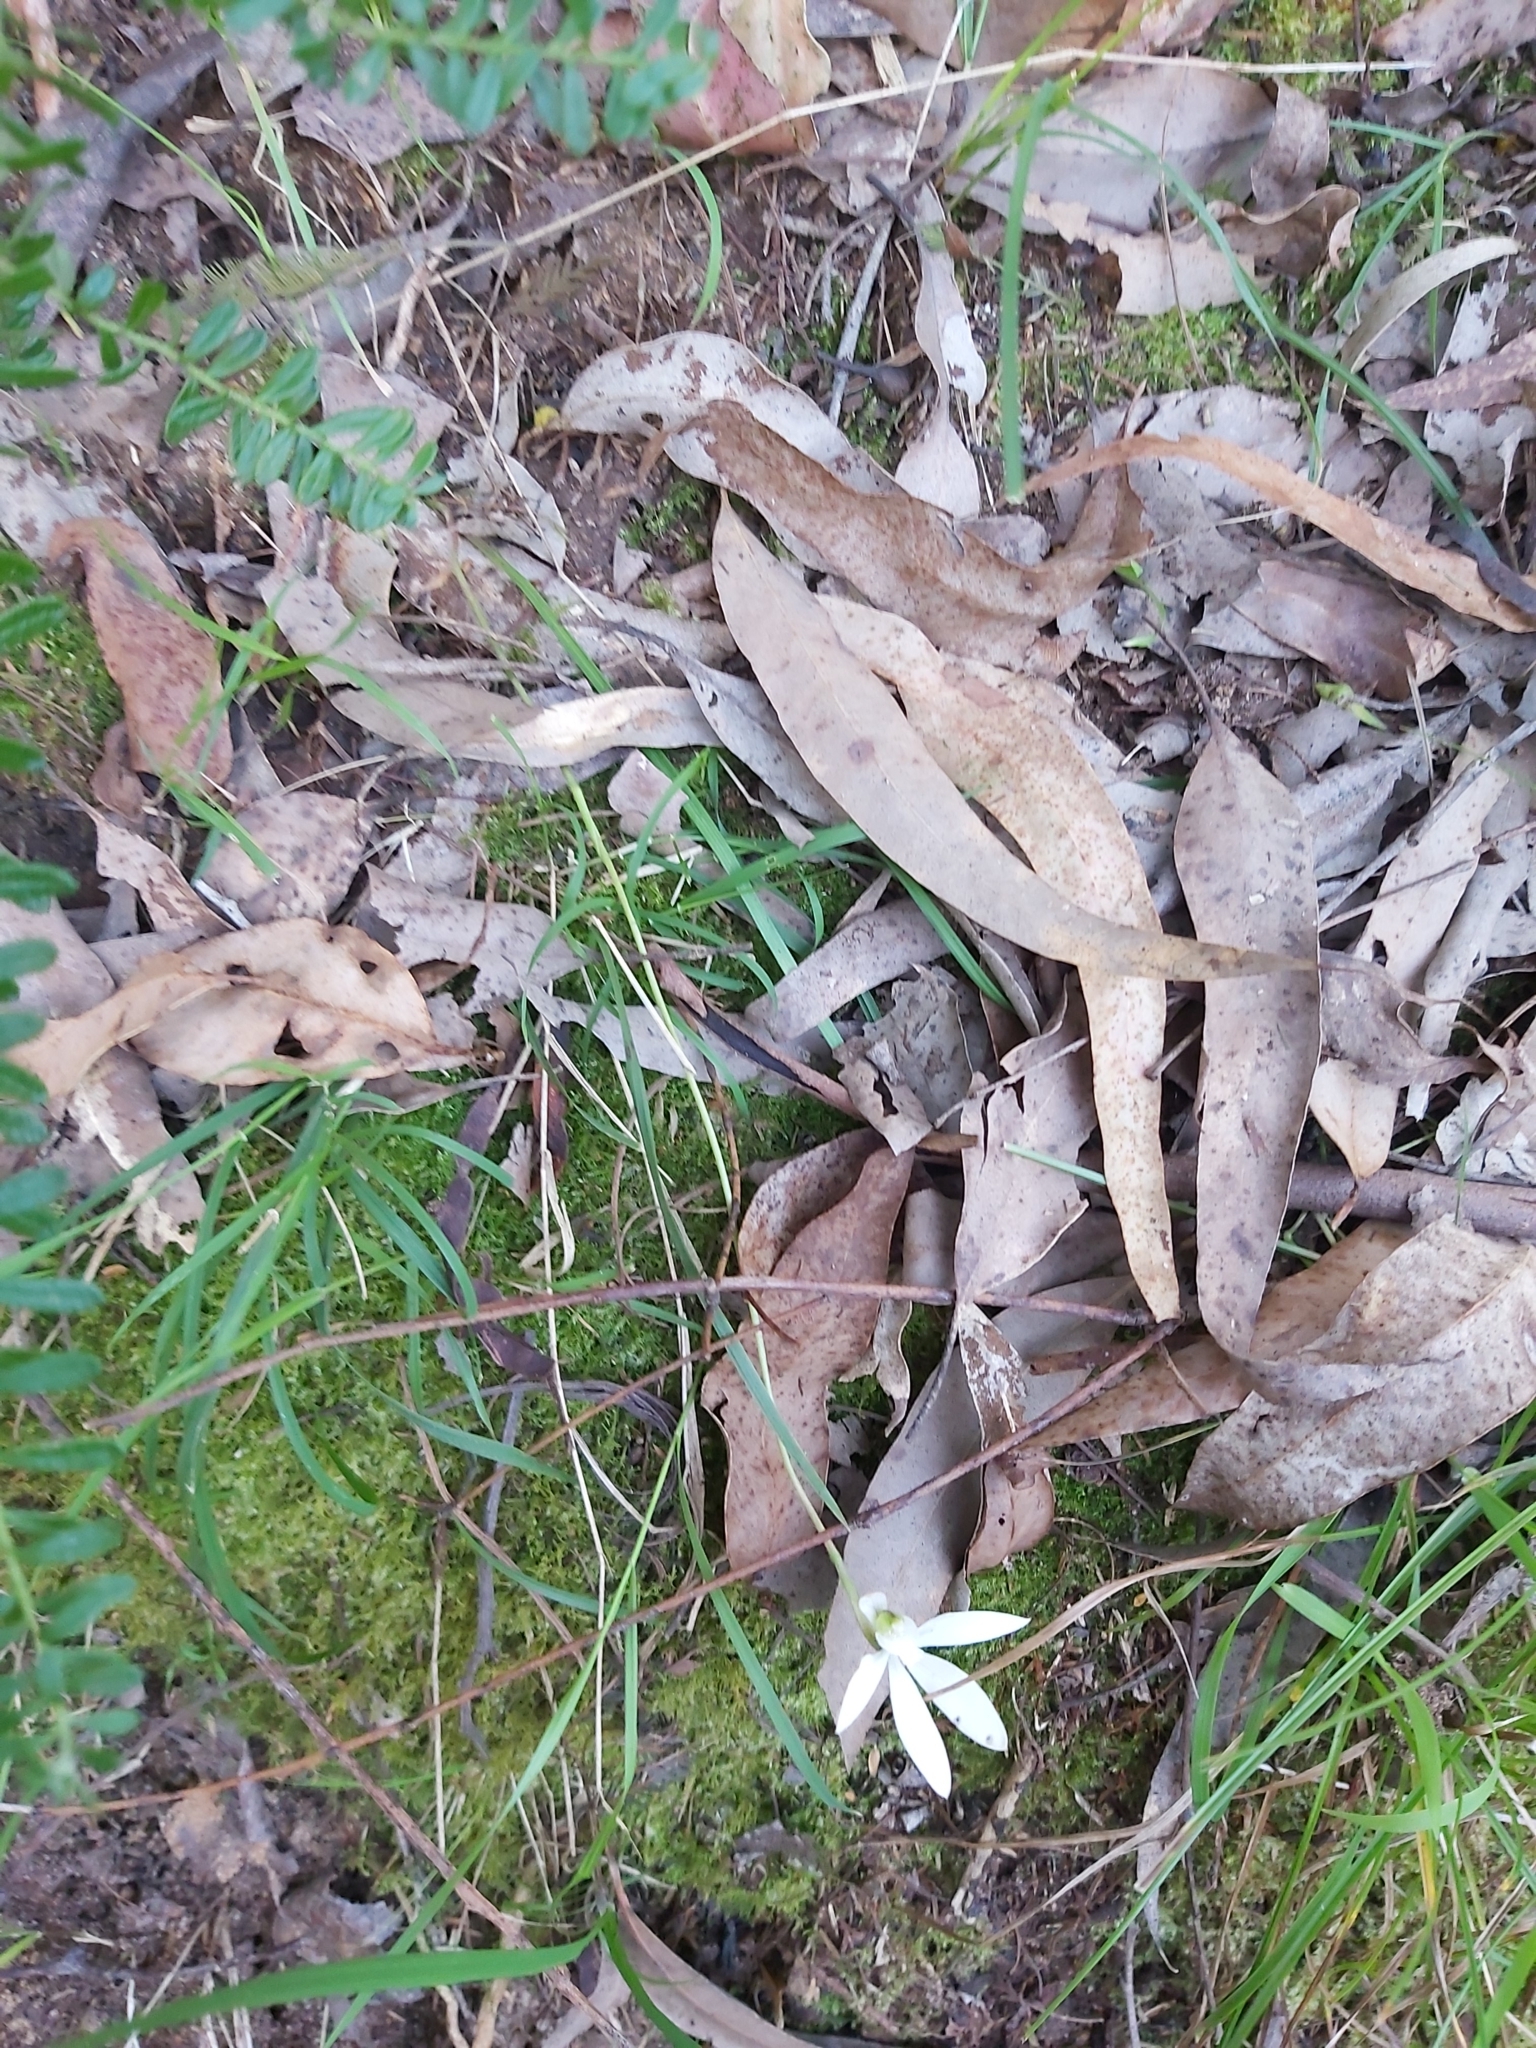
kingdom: Plantae
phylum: Tracheophyta
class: Liliopsida
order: Asparagales
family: Orchidaceae
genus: Caladenia
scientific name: Caladenia catenata
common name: White caladenia
